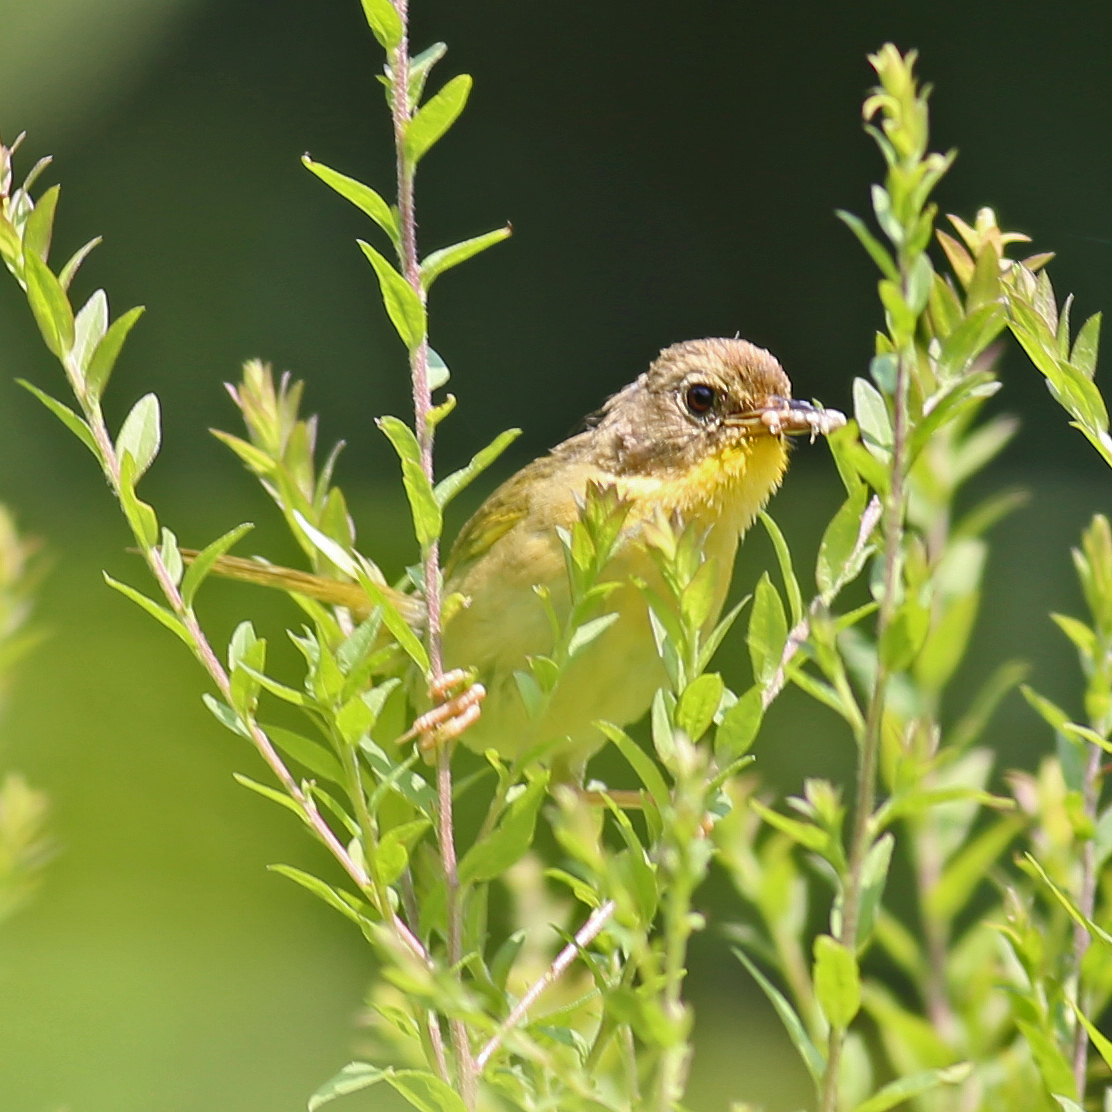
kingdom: Animalia
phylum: Chordata
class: Aves
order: Passeriformes
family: Parulidae
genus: Geothlypis
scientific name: Geothlypis trichas
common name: Common yellowthroat
